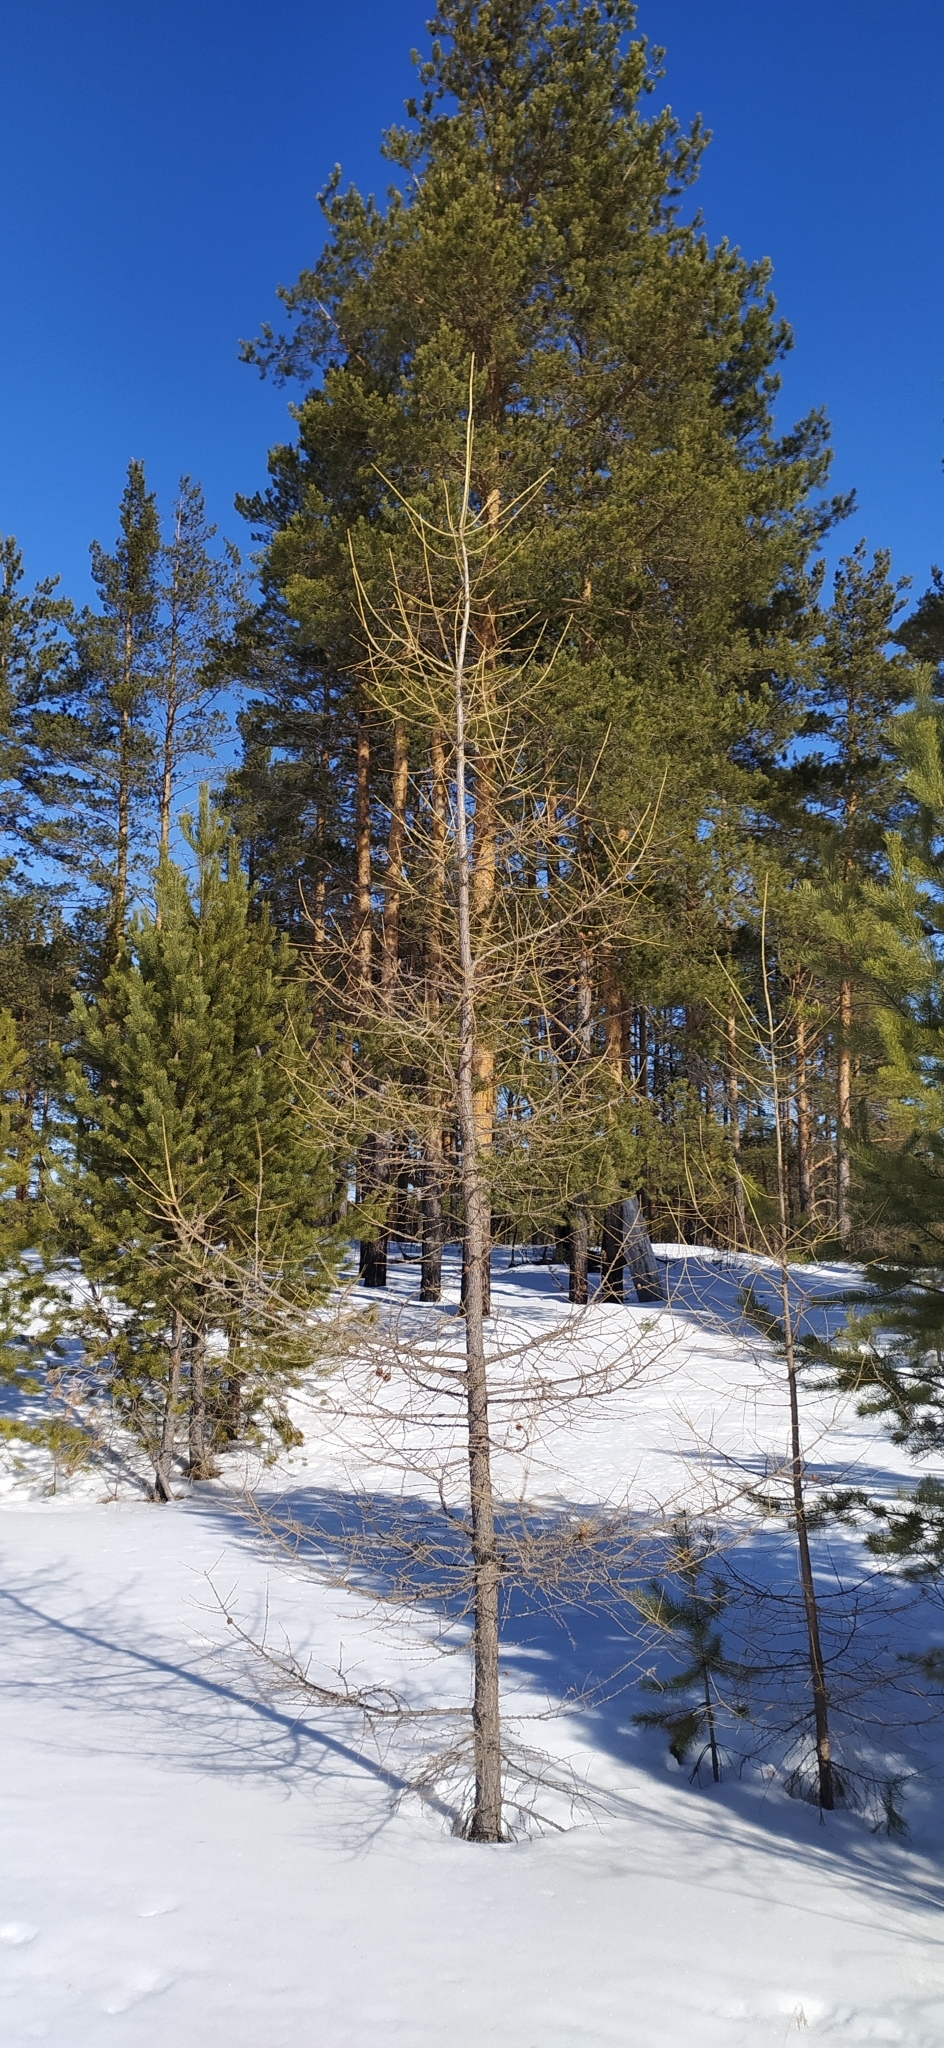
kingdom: Plantae
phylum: Tracheophyta
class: Pinopsida
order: Pinales
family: Pinaceae
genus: Larix
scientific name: Larix sibirica
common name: Siberian larch
